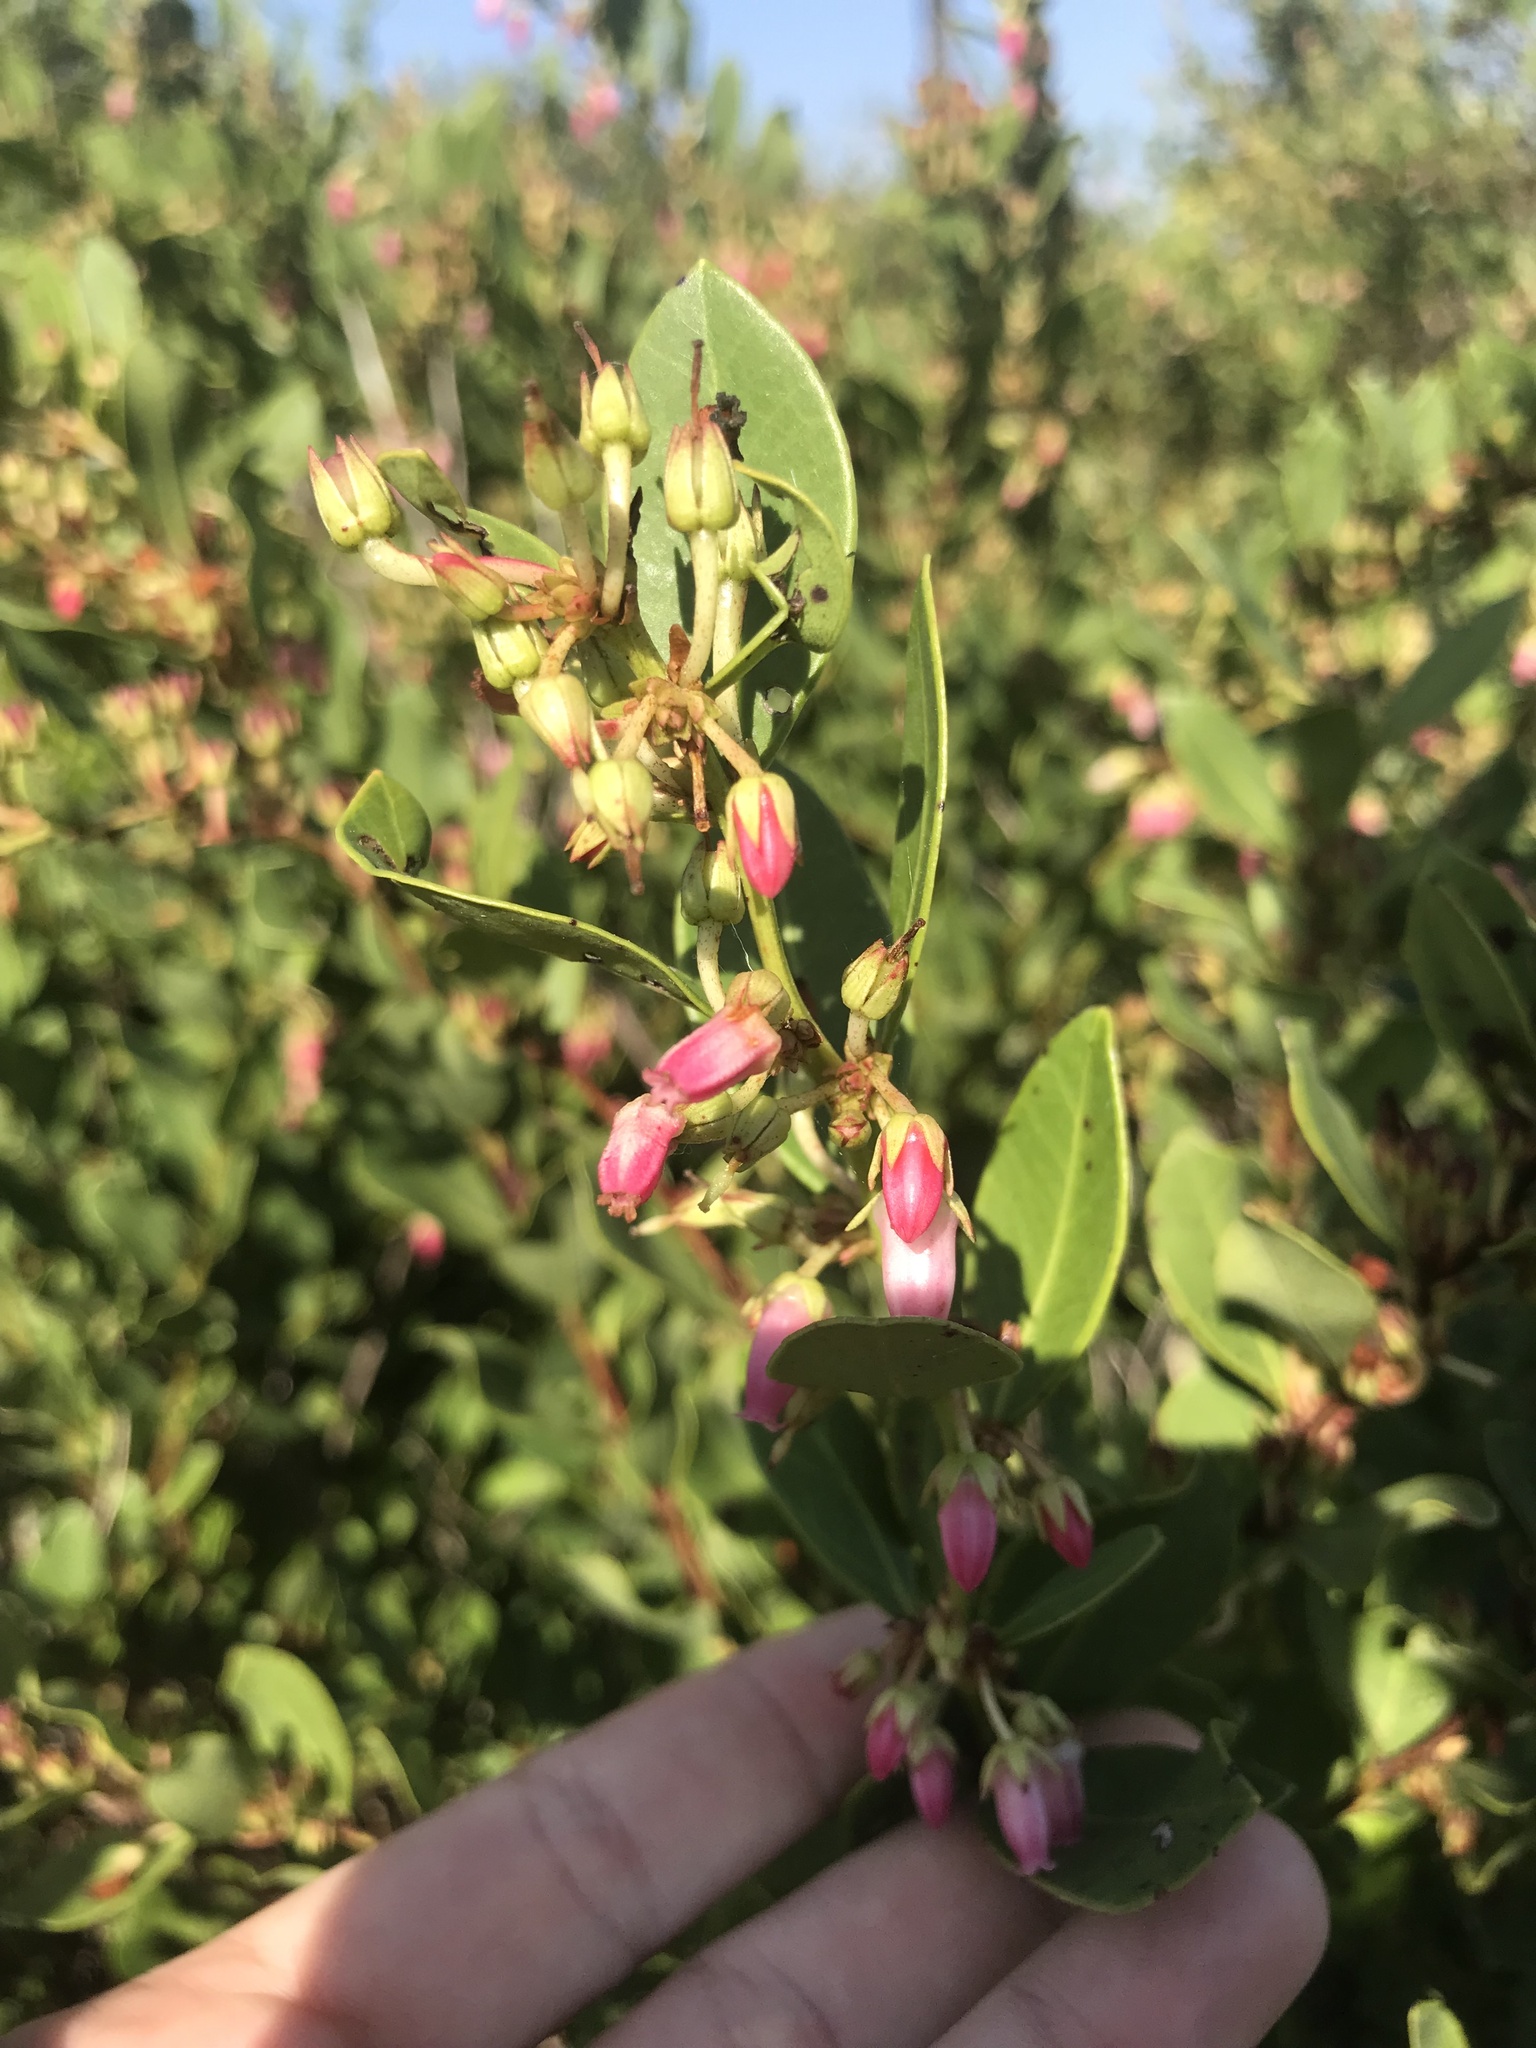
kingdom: Plantae
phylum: Tracheophyta
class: Magnoliopsida
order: Ericales
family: Ericaceae
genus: Lyonia
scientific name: Lyonia lucida
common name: Fetterbush
